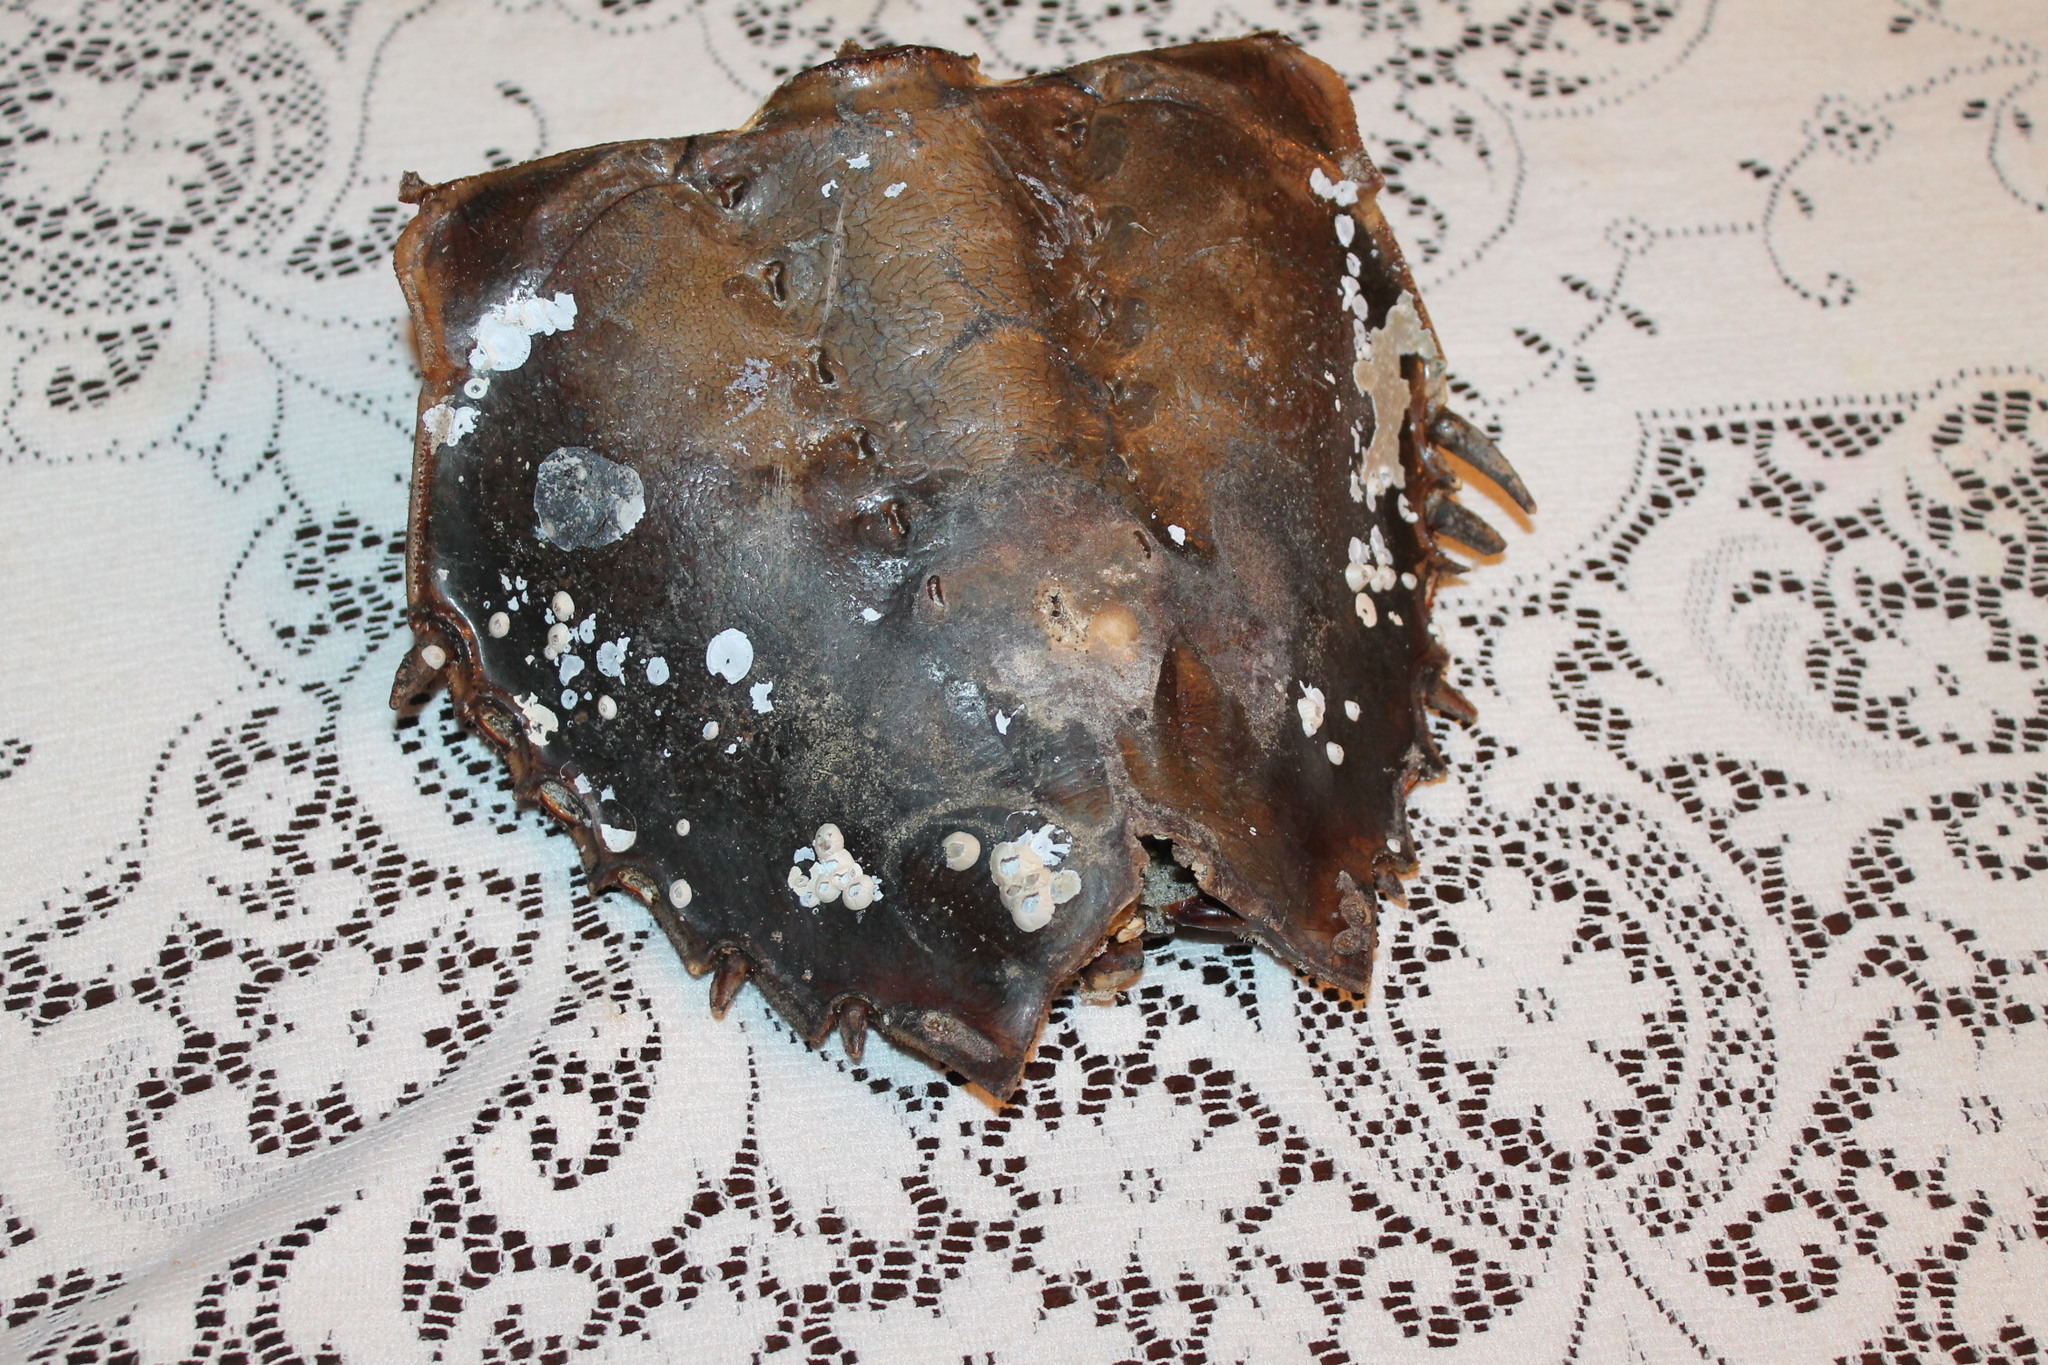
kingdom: Animalia
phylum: Arthropoda
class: Merostomata
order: Xiphosurida
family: Limulidae
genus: Limulus
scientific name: Limulus polyphemus
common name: Horseshoe crab
